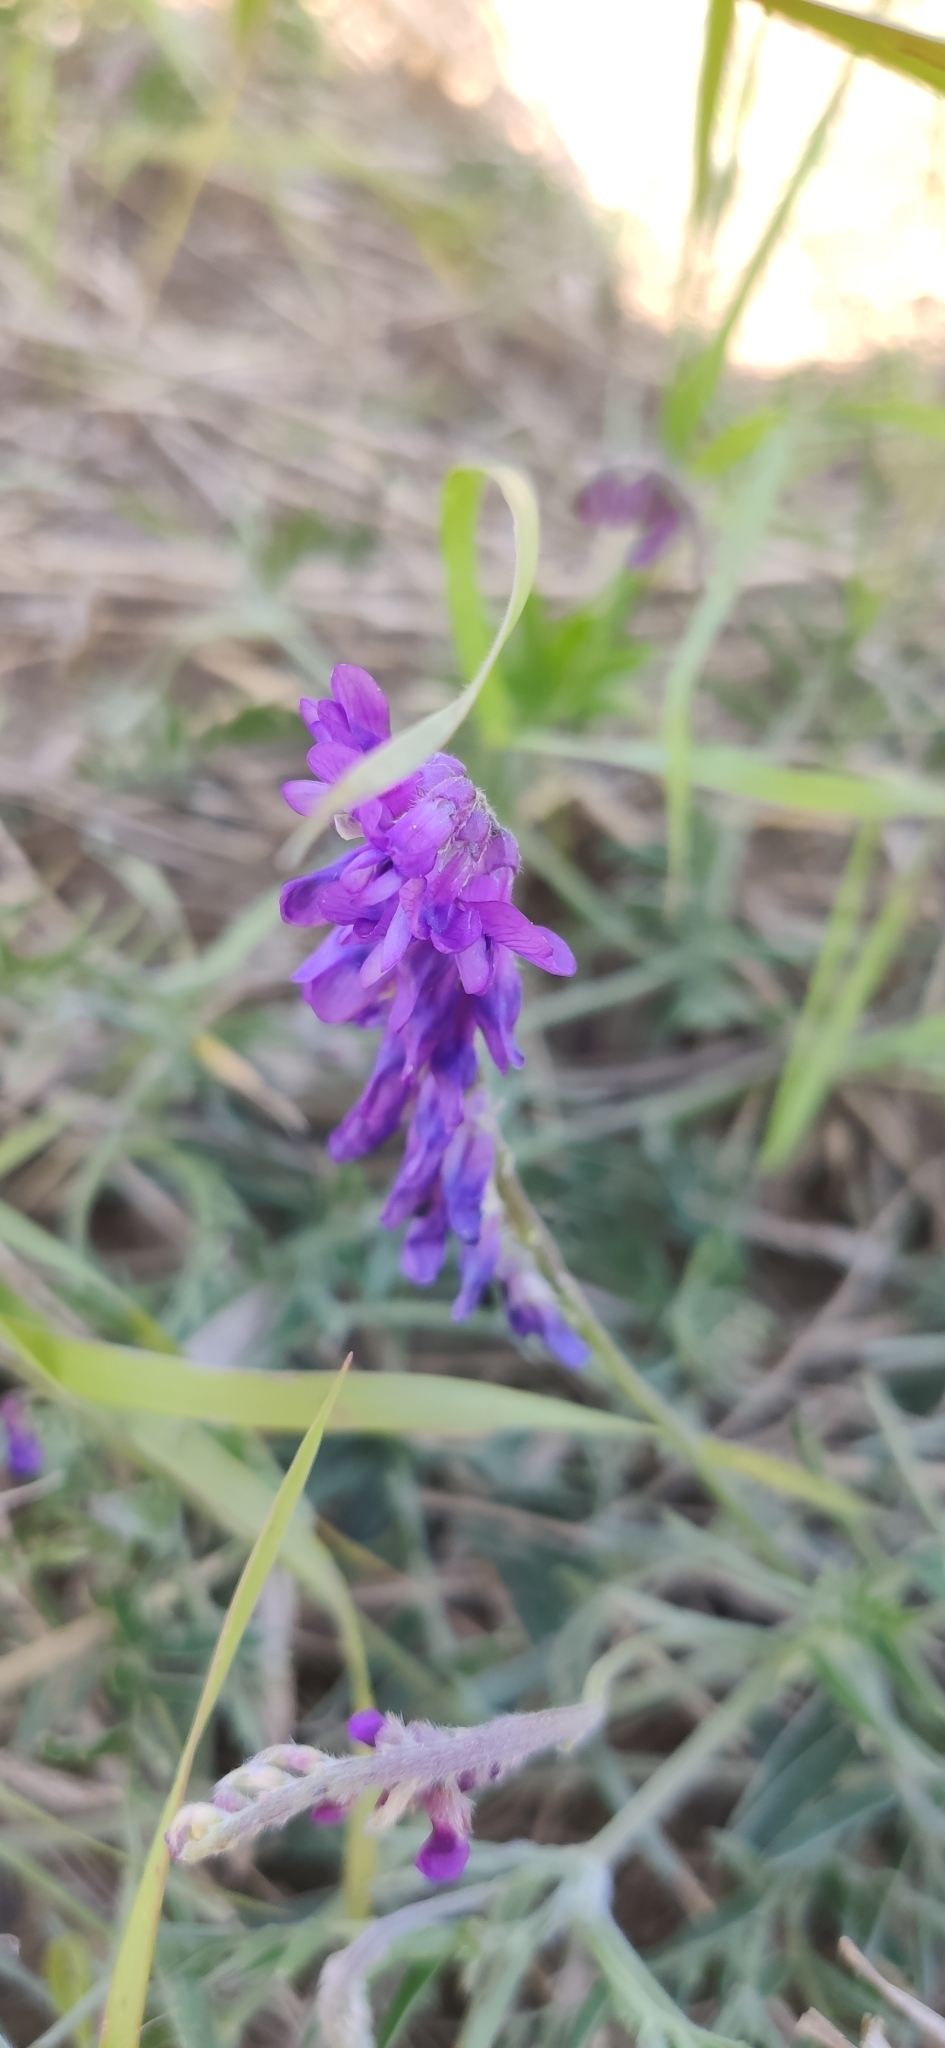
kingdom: Plantae
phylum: Tracheophyta
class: Magnoliopsida
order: Fabales
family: Fabaceae
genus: Vicia
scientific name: Vicia cracca
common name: Bird vetch
